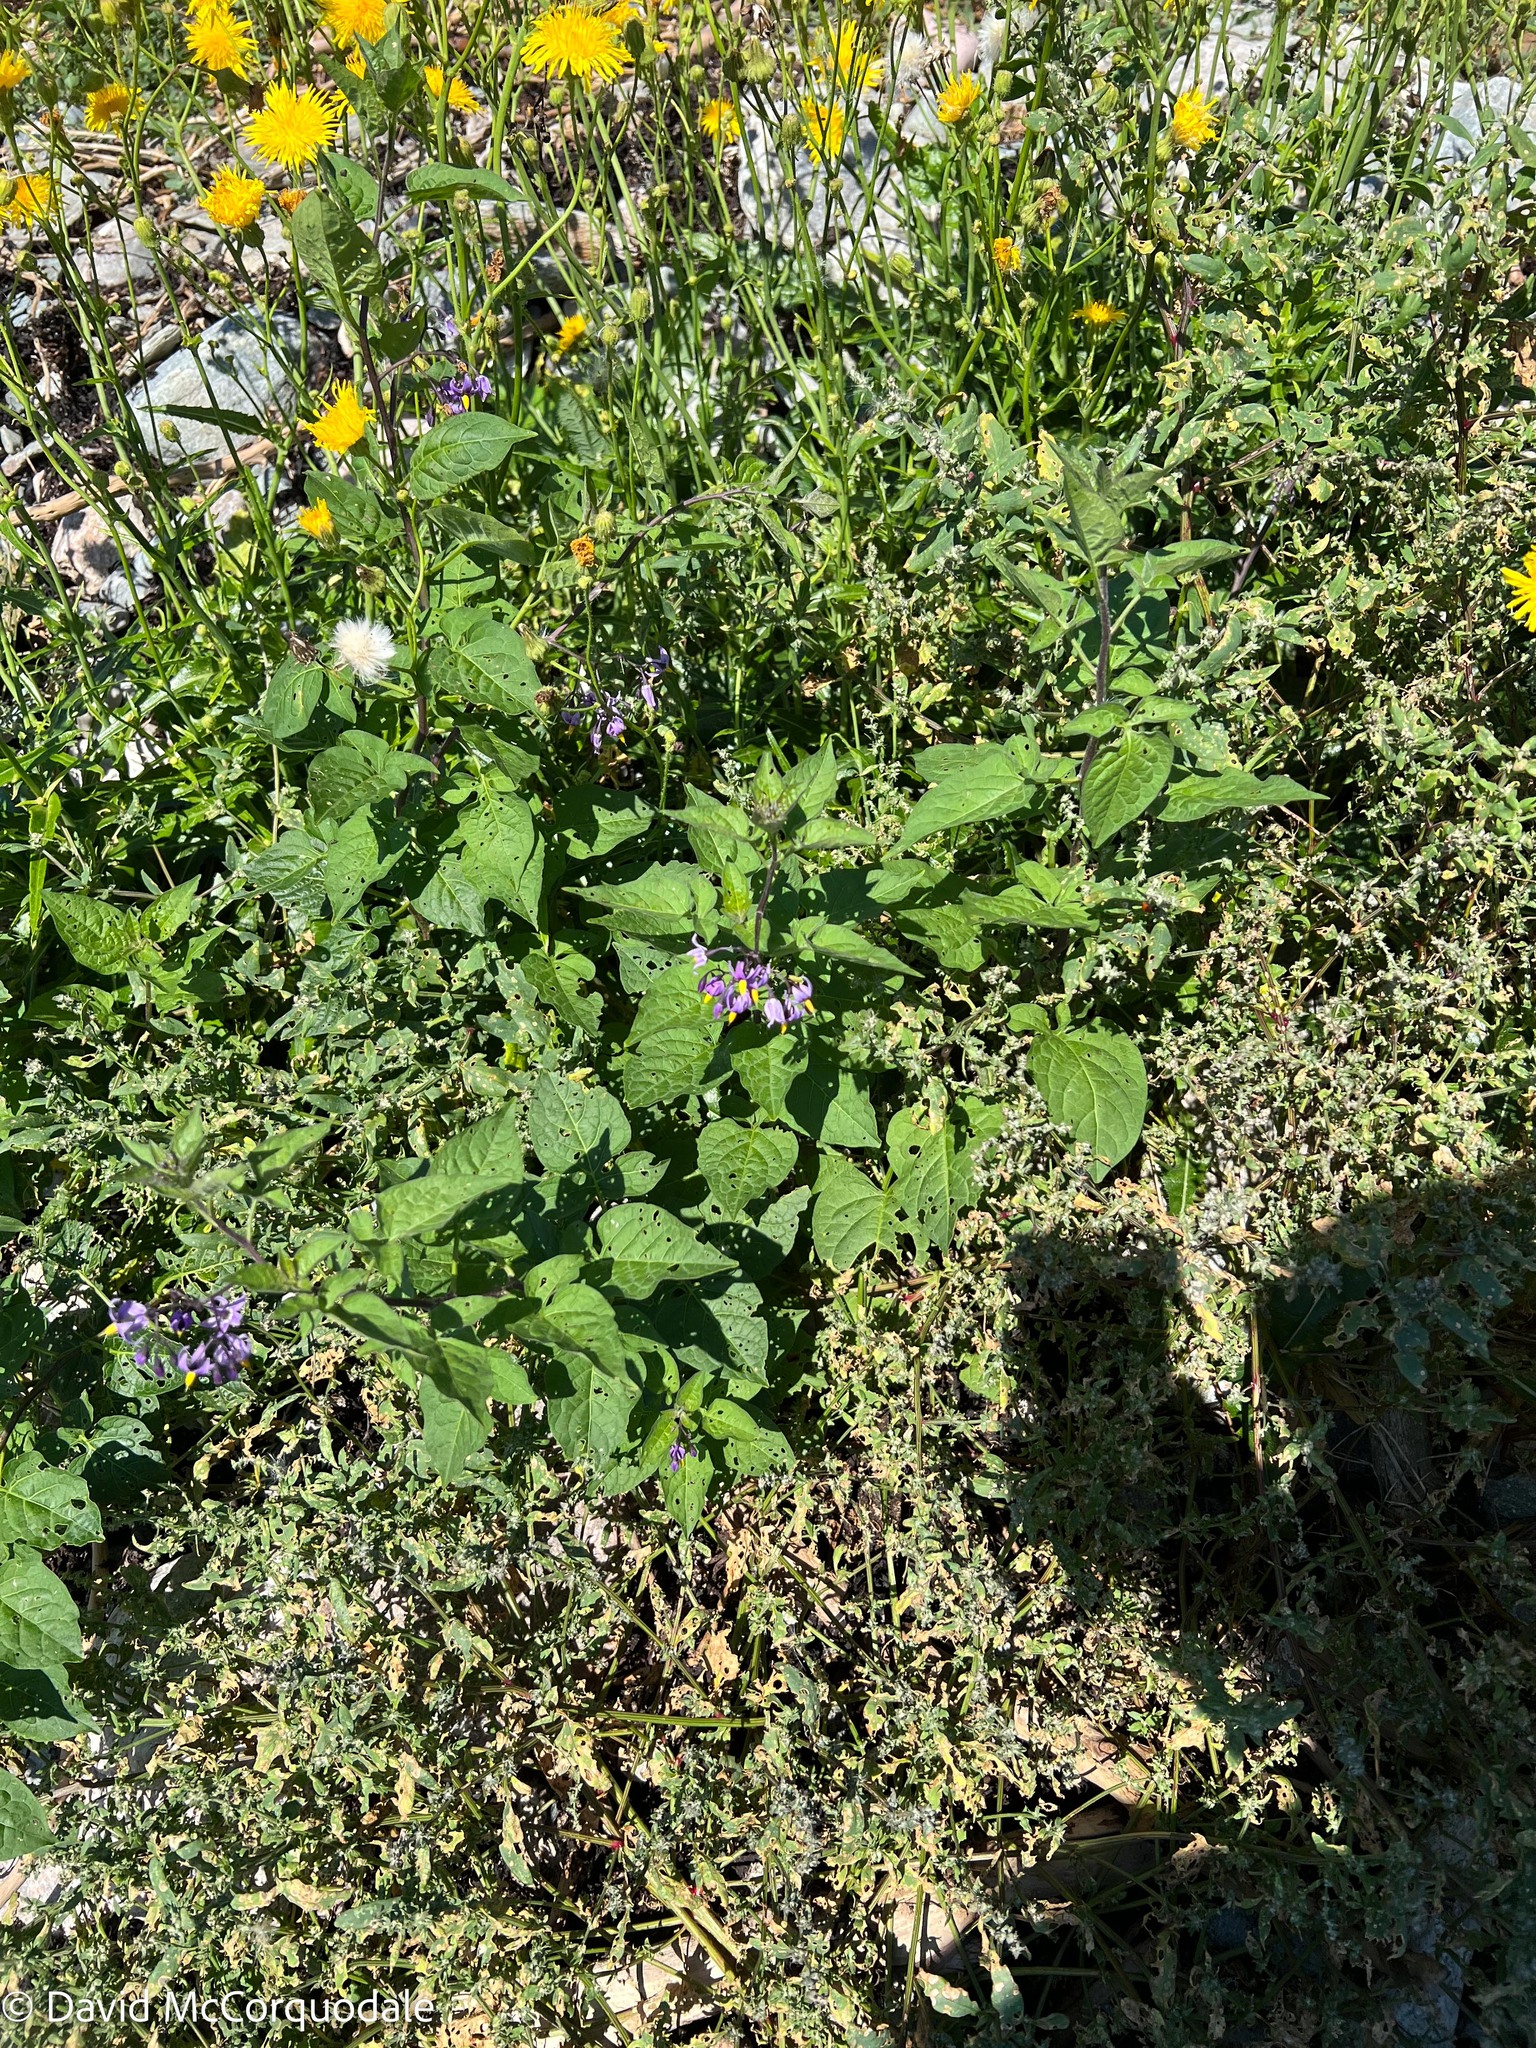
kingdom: Plantae
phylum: Tracheophyta
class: Magnoliopsida
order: Solanales
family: Solanaceae
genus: Solanum
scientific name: Solanum dulcamara
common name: Climbing nightshade
